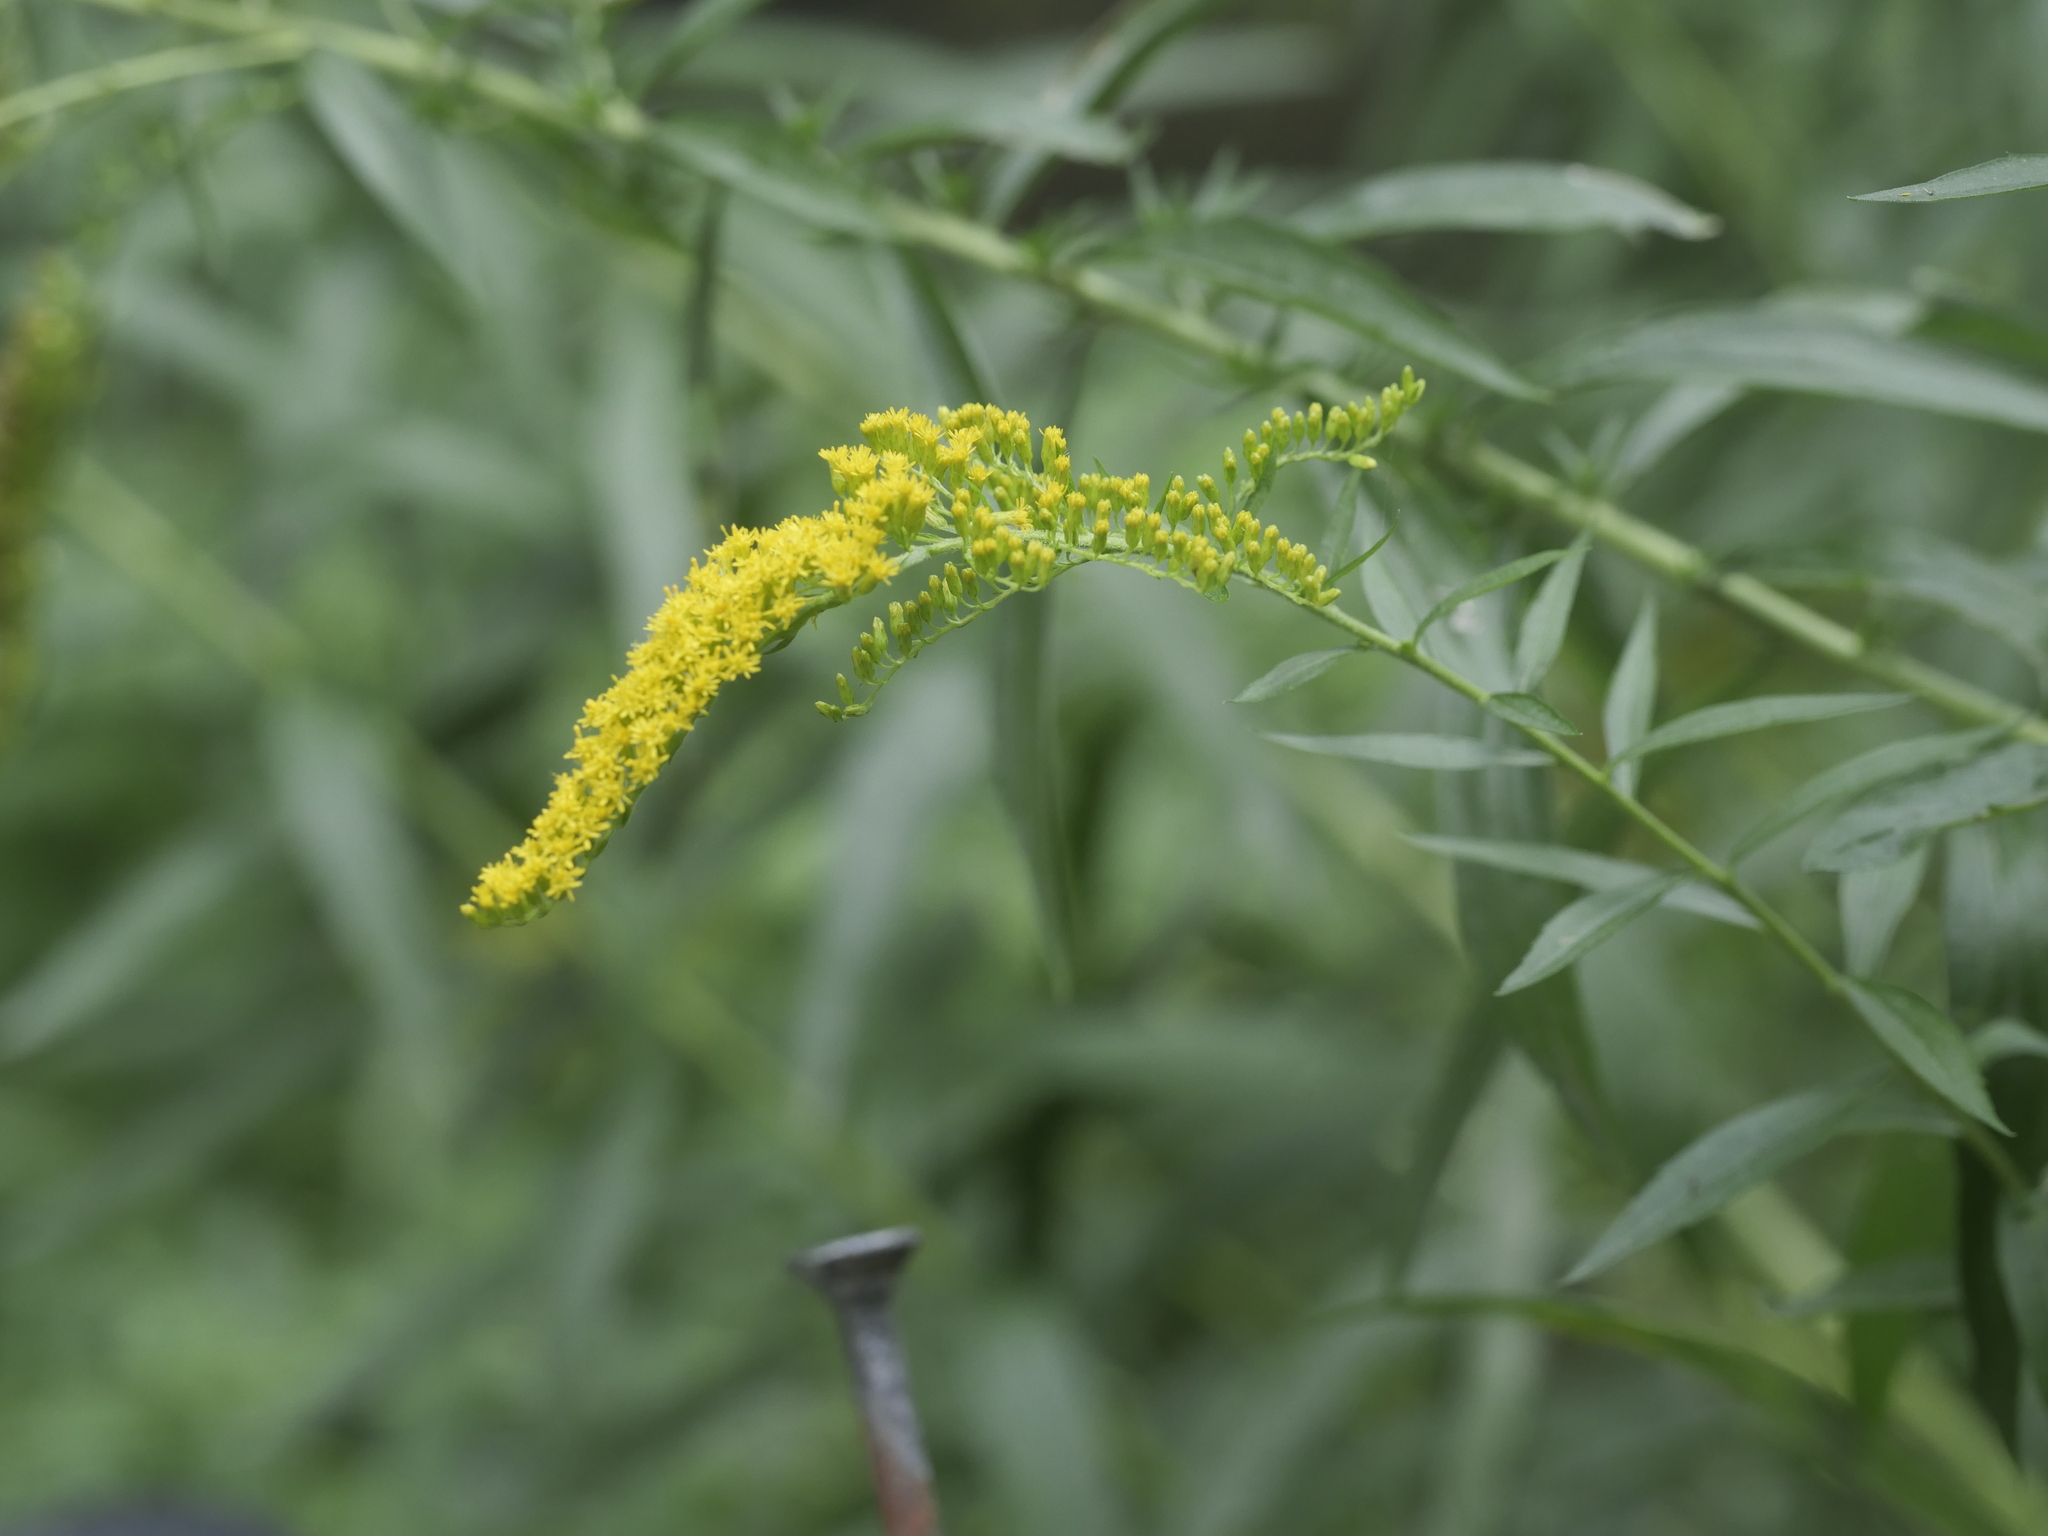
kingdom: Plantae
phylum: Tracheophyta
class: Magnoliopsida
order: Asterales
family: Asteraceae
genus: Solidago
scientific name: Solidago canadensis
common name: Canada goldenrod
